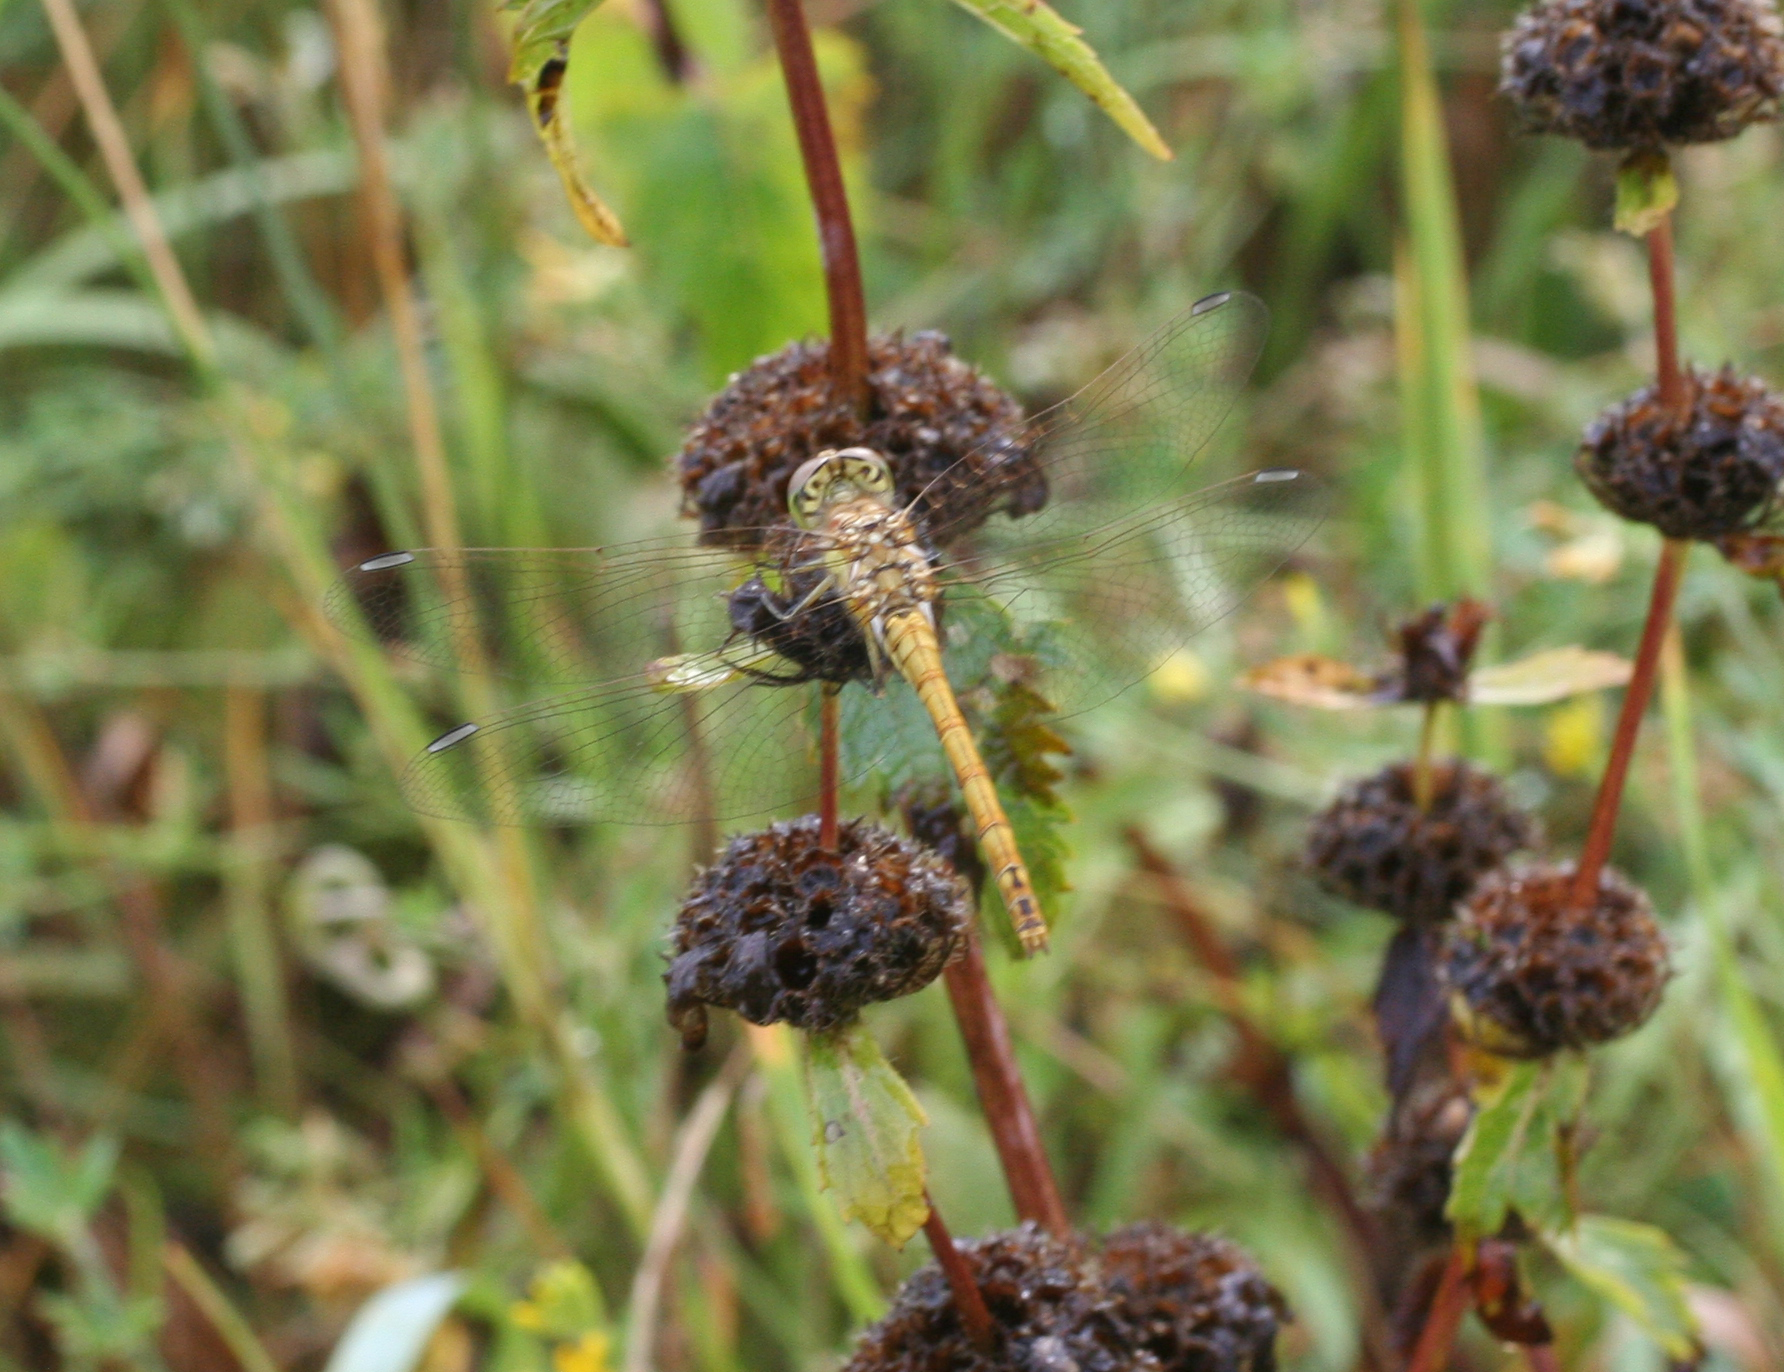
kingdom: Animalia
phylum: Arthropoda
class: Insecta
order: Odonata
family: Libellulidae
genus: Sympetrum
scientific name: Sympetrum vulgatum
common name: Vagrant darter
